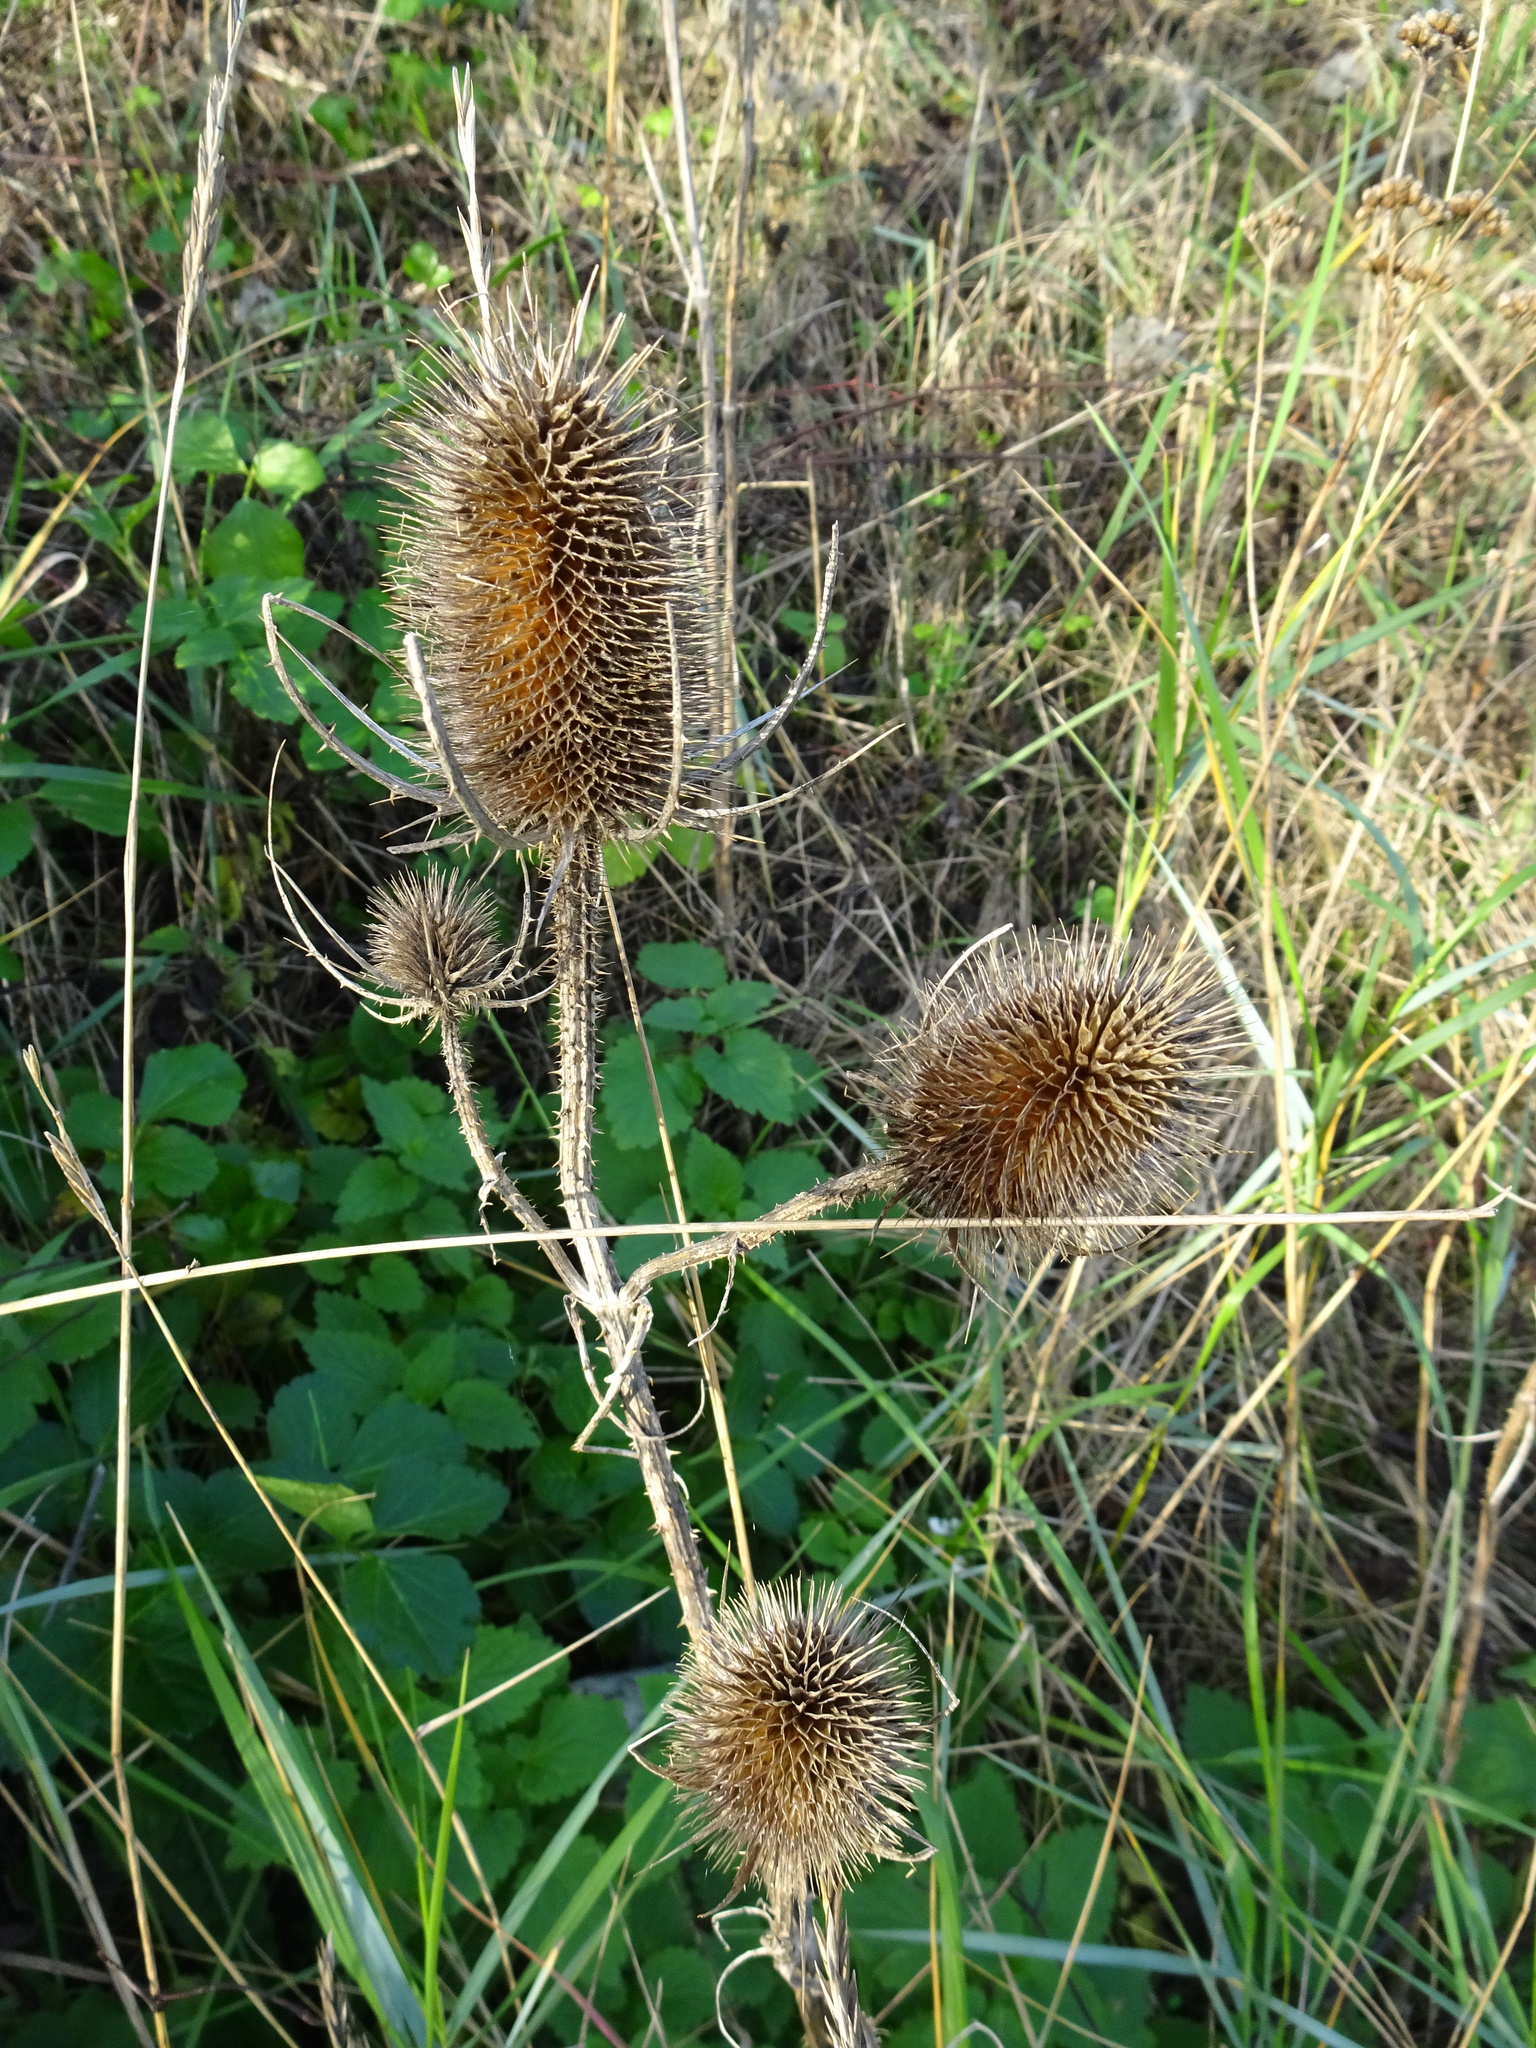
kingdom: Plantae
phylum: Tracheophyta
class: Magnoliopsida
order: Dipsacales
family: Caprifoliaceae
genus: Dipsacus
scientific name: Dipsacus fullonum
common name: Teasel
